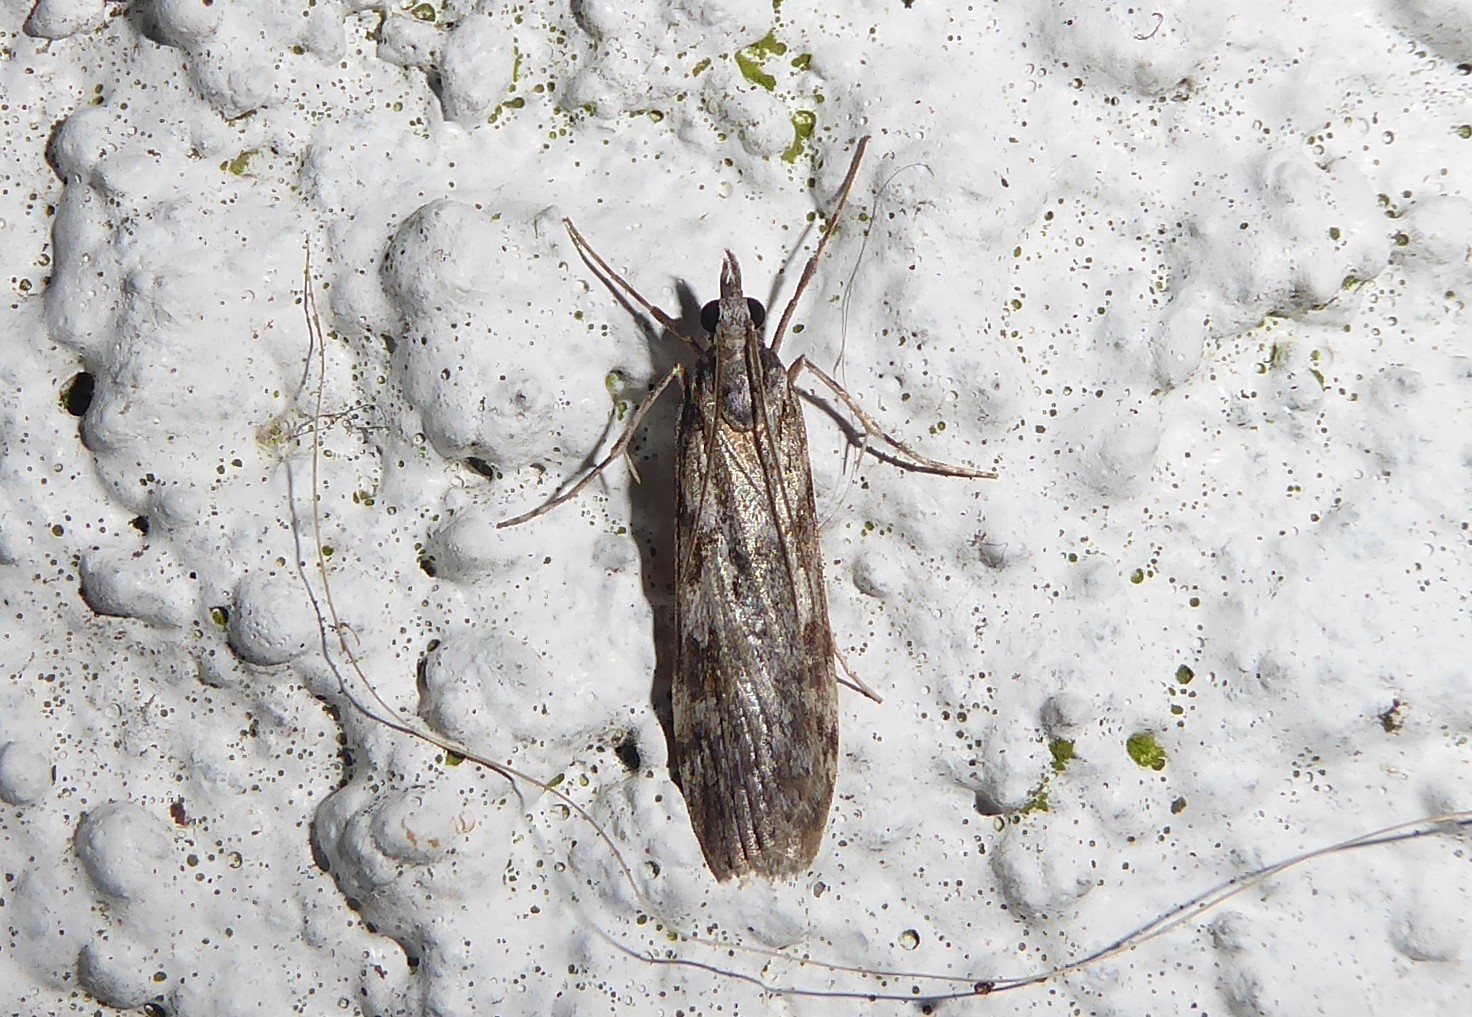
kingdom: Animalia
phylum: Arthropoda
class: Insecta
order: Lepidoptera
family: Crambidae
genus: Scoparia
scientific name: Scoparia halopis
